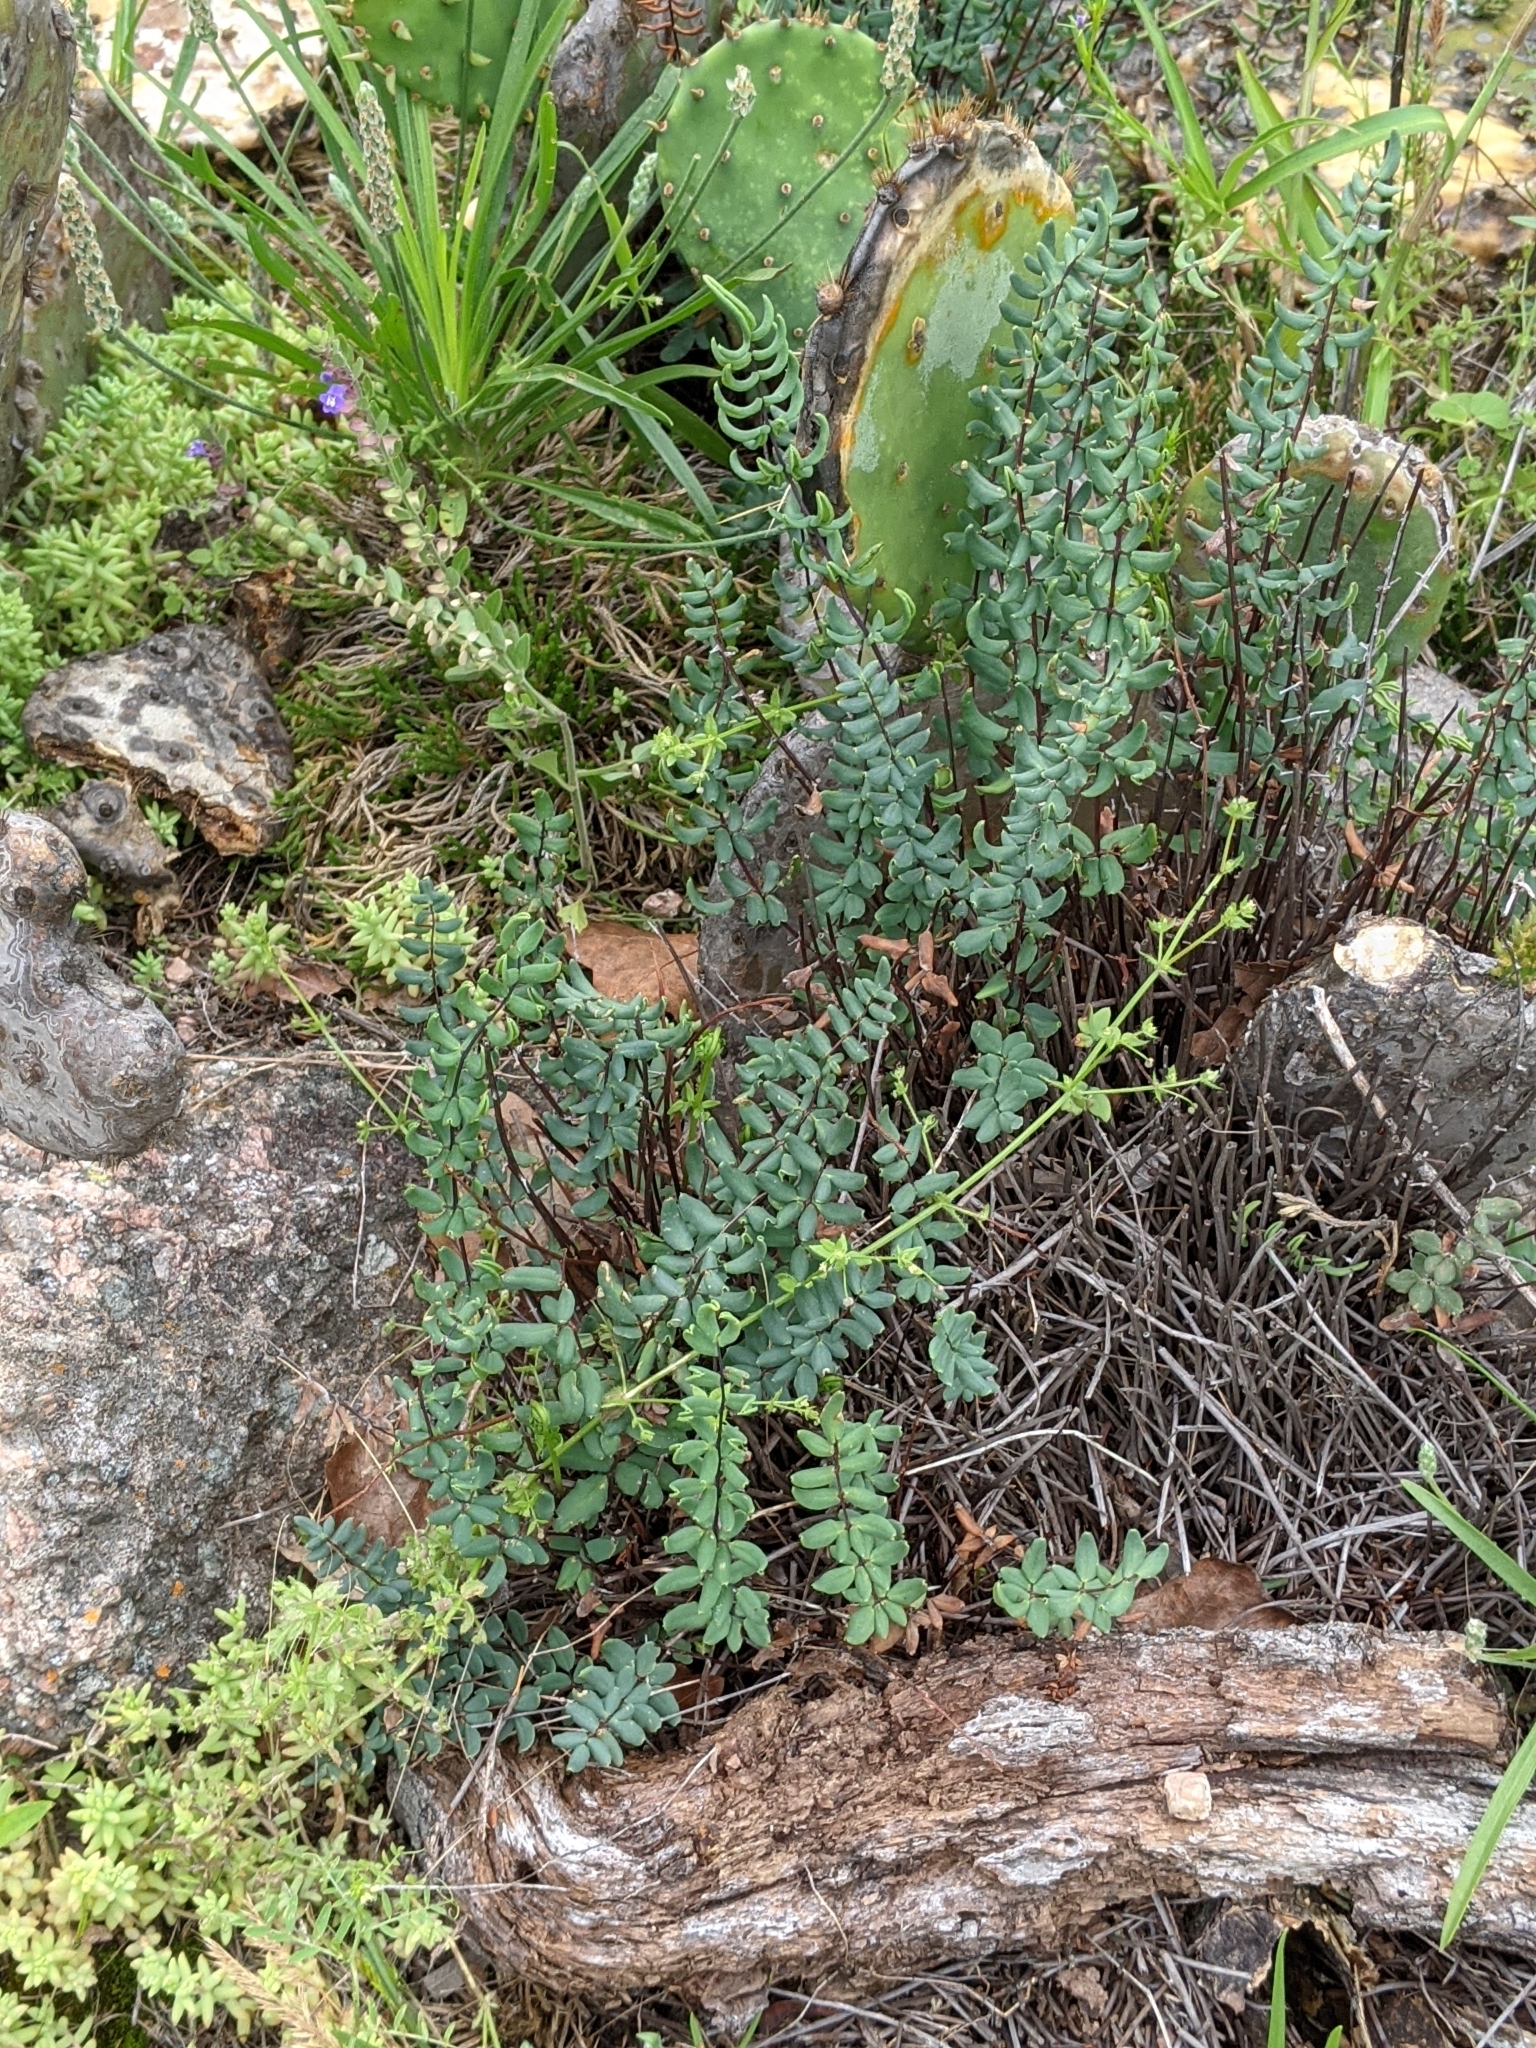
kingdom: Plantae
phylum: Tracheophyta
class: Polypodiopsida
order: Polypodiales
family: Pteridaceae
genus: Pellaea
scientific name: Pellaea wrightiana
